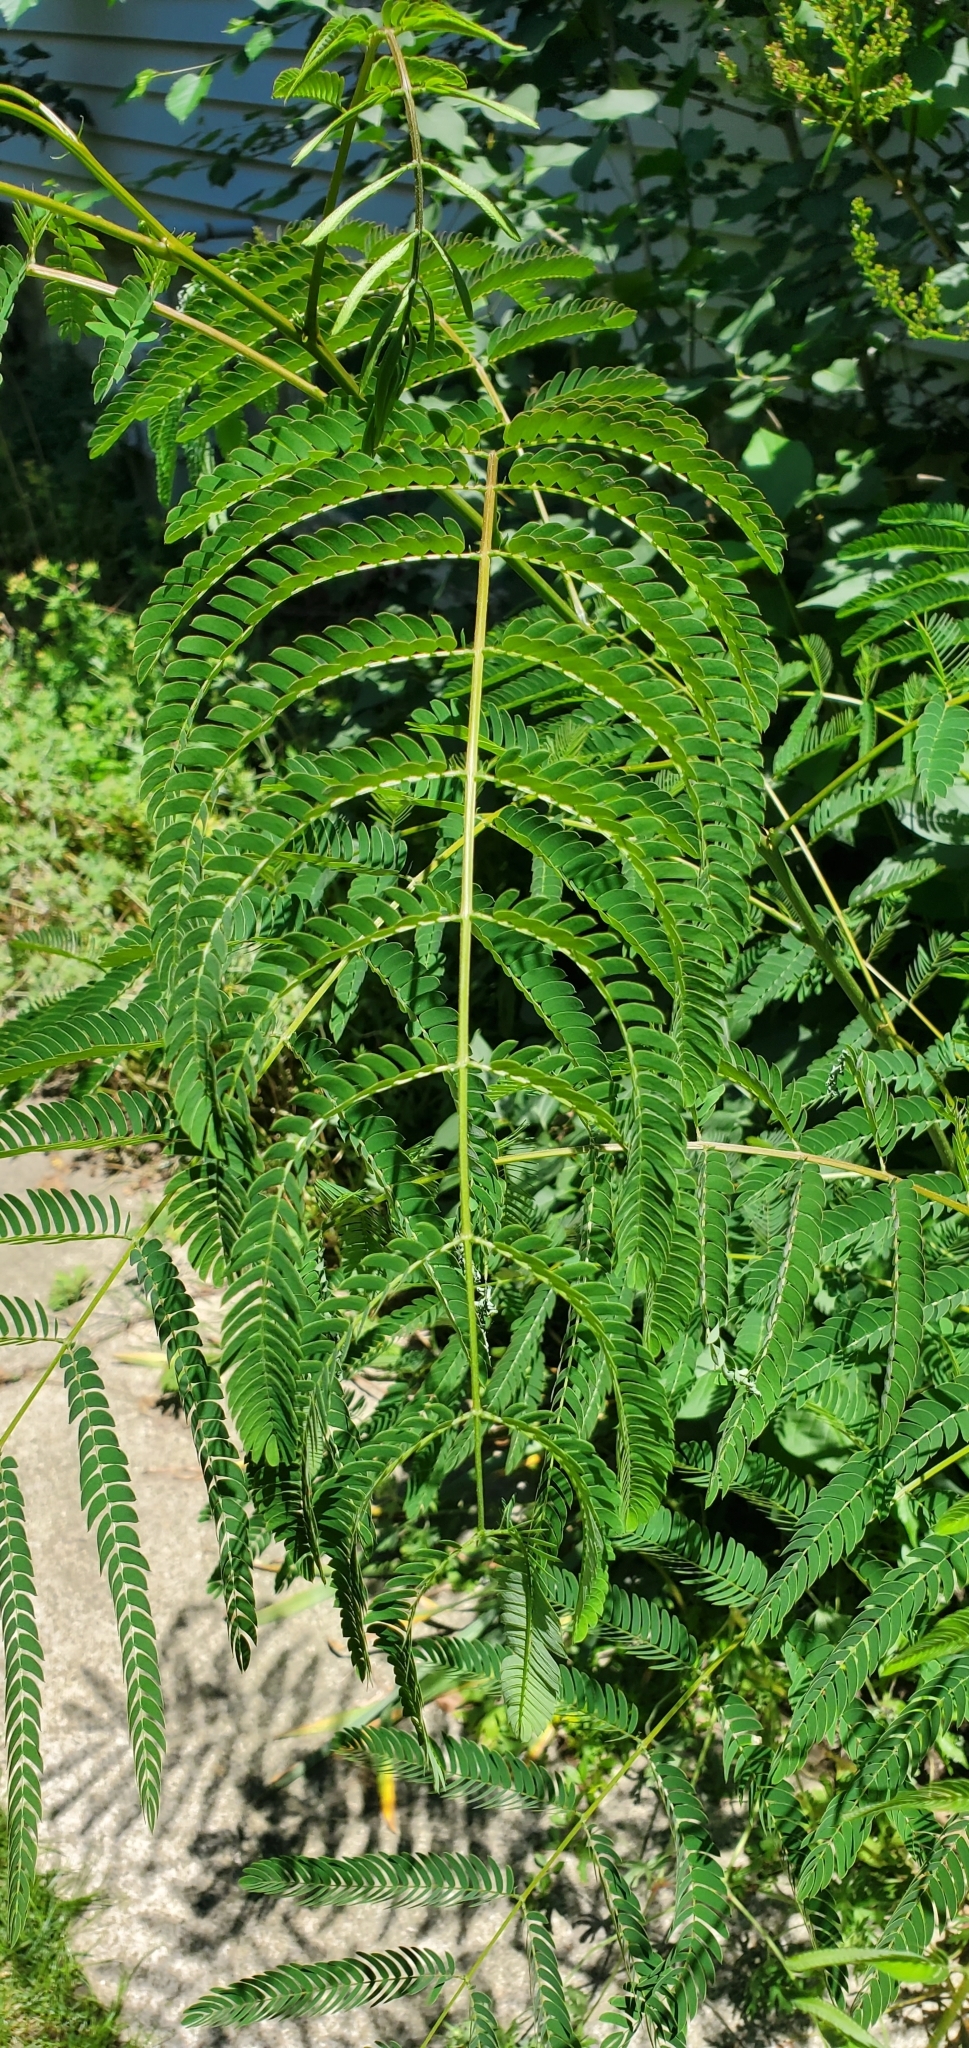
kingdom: Plantae
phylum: Tracheophyta
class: Magnoliopsida
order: Fabales
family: Fabaceae
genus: Albizia
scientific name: Albizia julibrissin
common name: Silktree
